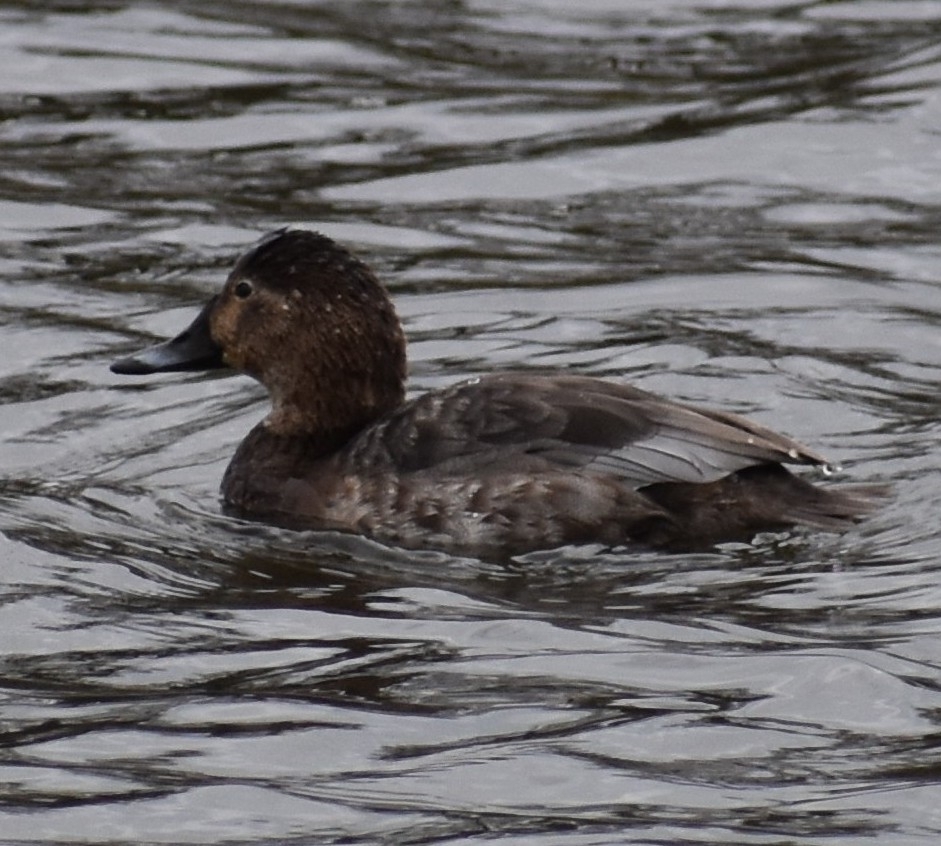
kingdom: Animalia
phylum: Chordata
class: Aves
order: Anseriformes
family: Anatidae
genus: Aythya
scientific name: Aythya ferina
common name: Common pochard
